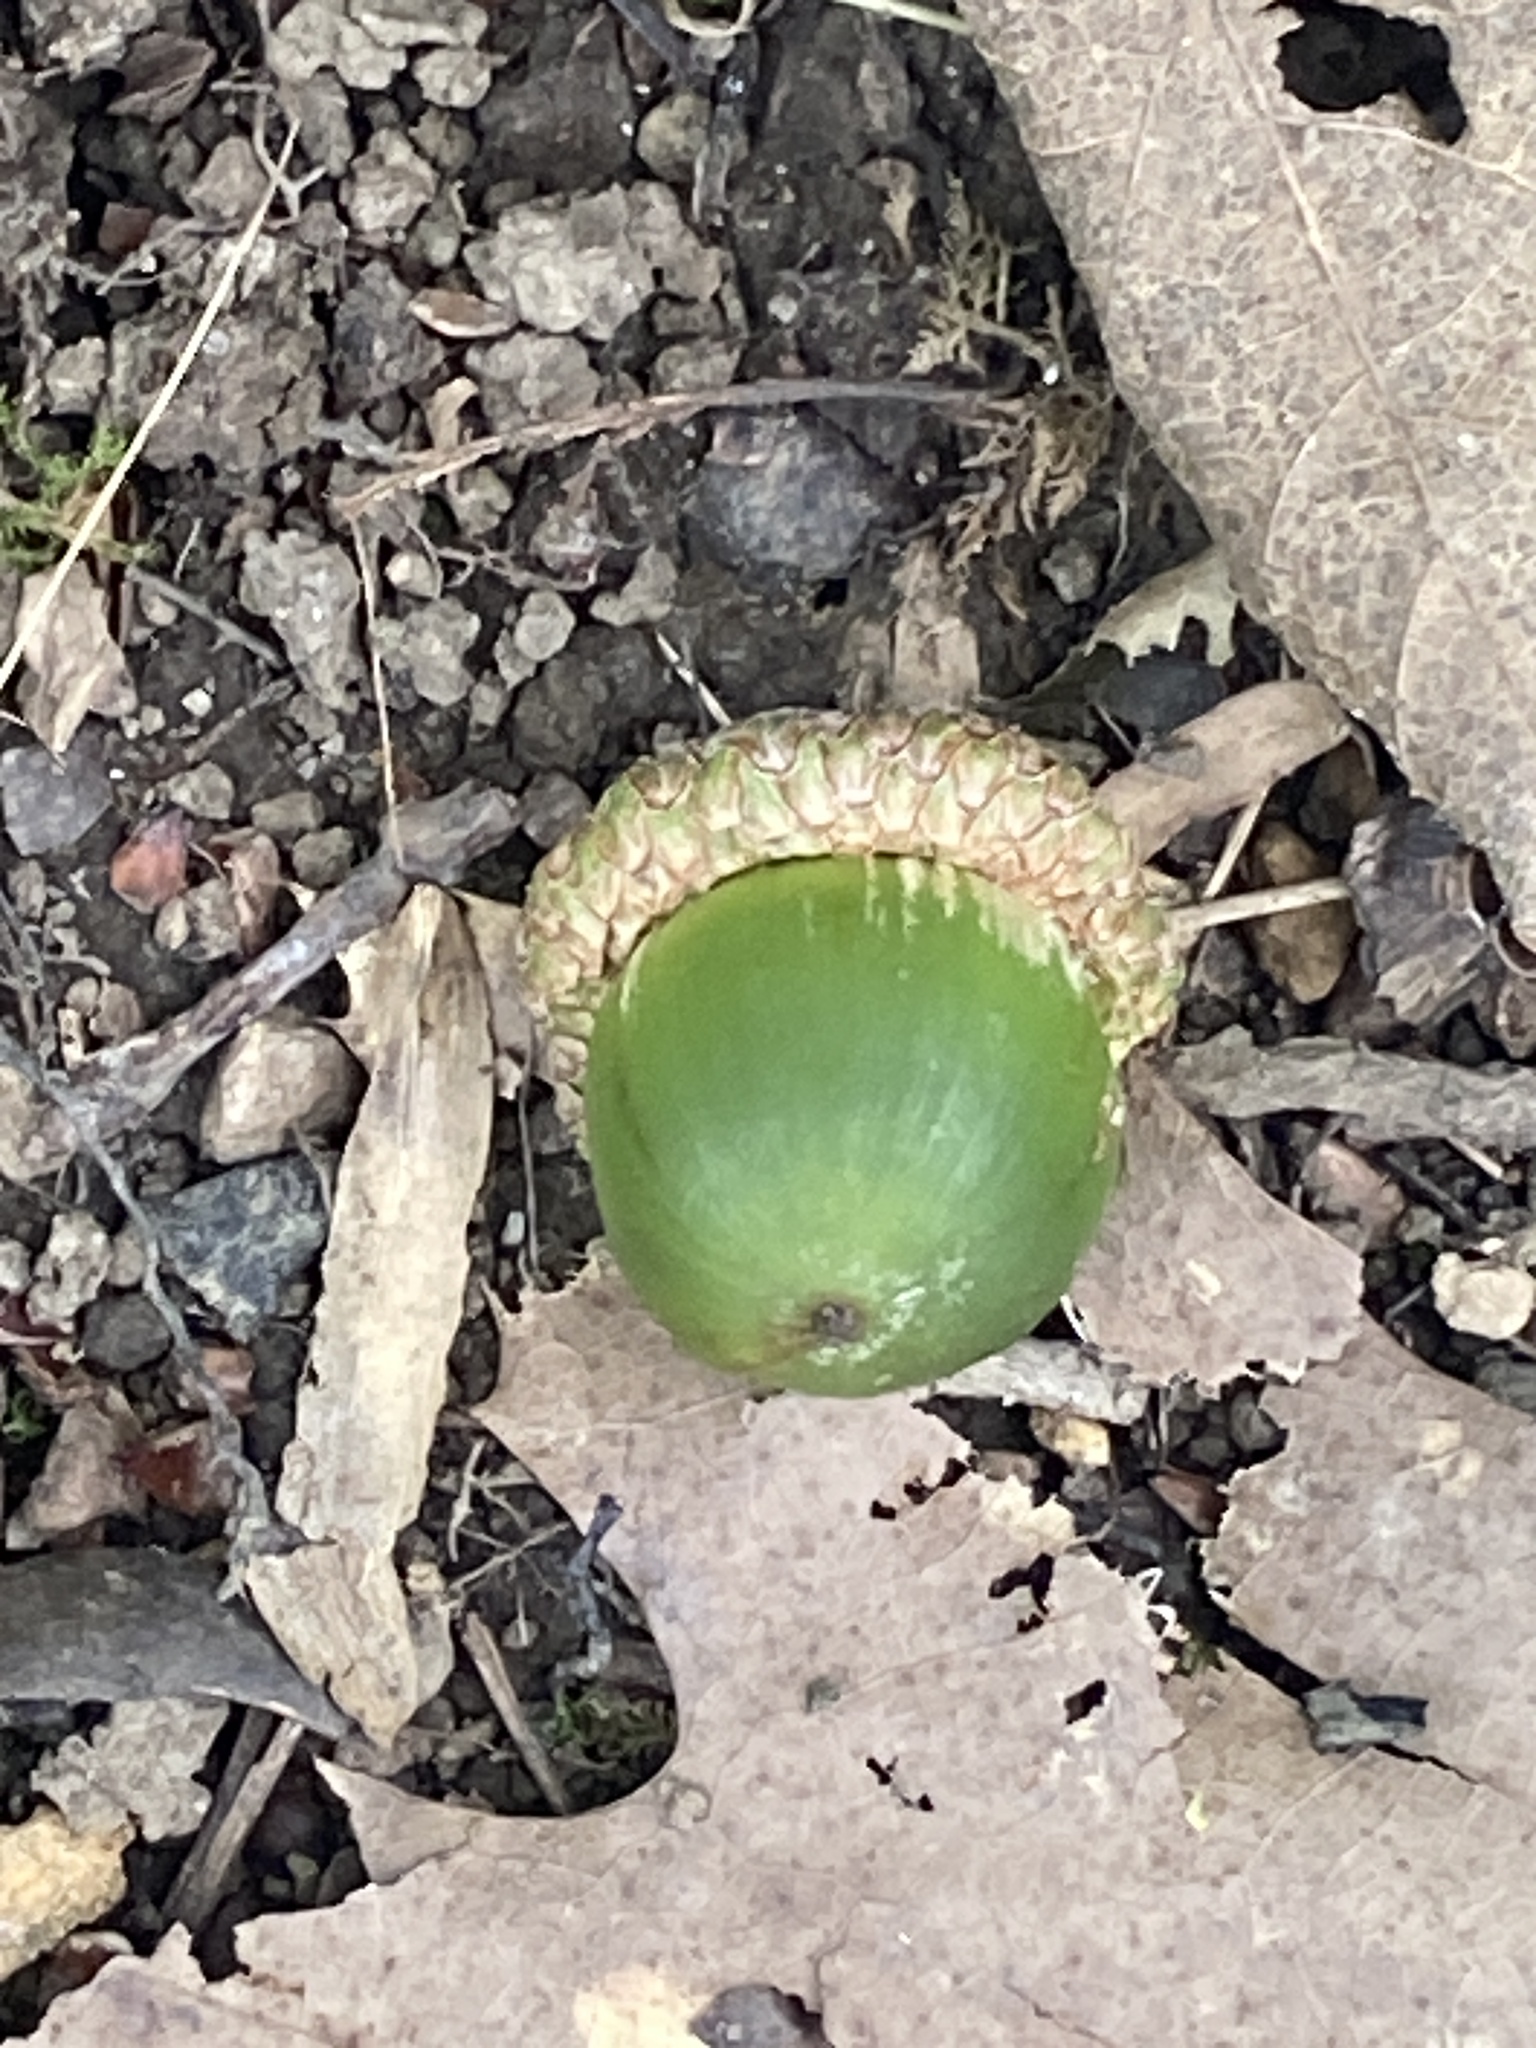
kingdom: Plantae
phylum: Tracheophyta
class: Magnoliopsida
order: Fagales
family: Fagaceae
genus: Quercus
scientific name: Quercus rubra
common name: Red oak
